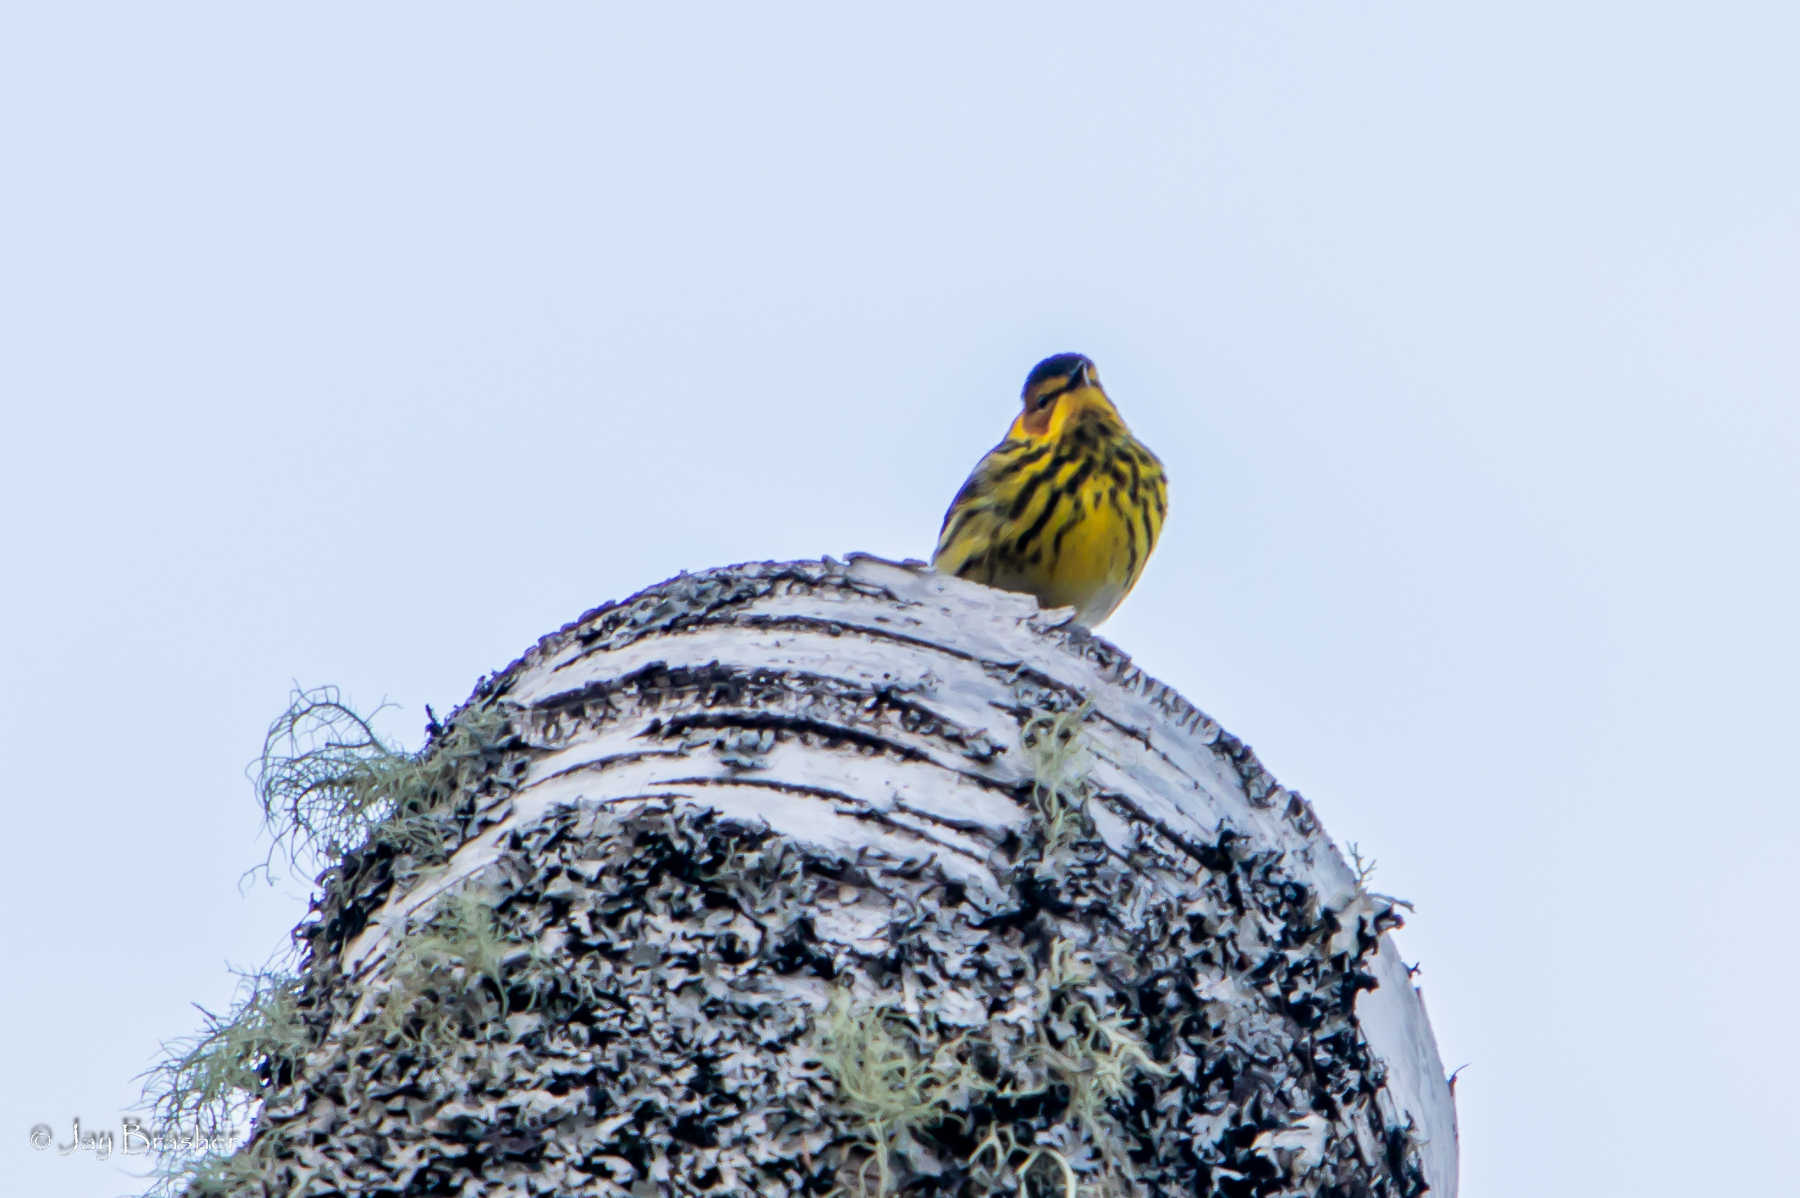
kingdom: Animalia
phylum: Chordata
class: Aves
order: Passeriformes
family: Parulidae
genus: Setophaga
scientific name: Setophaga tigrina
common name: Cape may warbler
